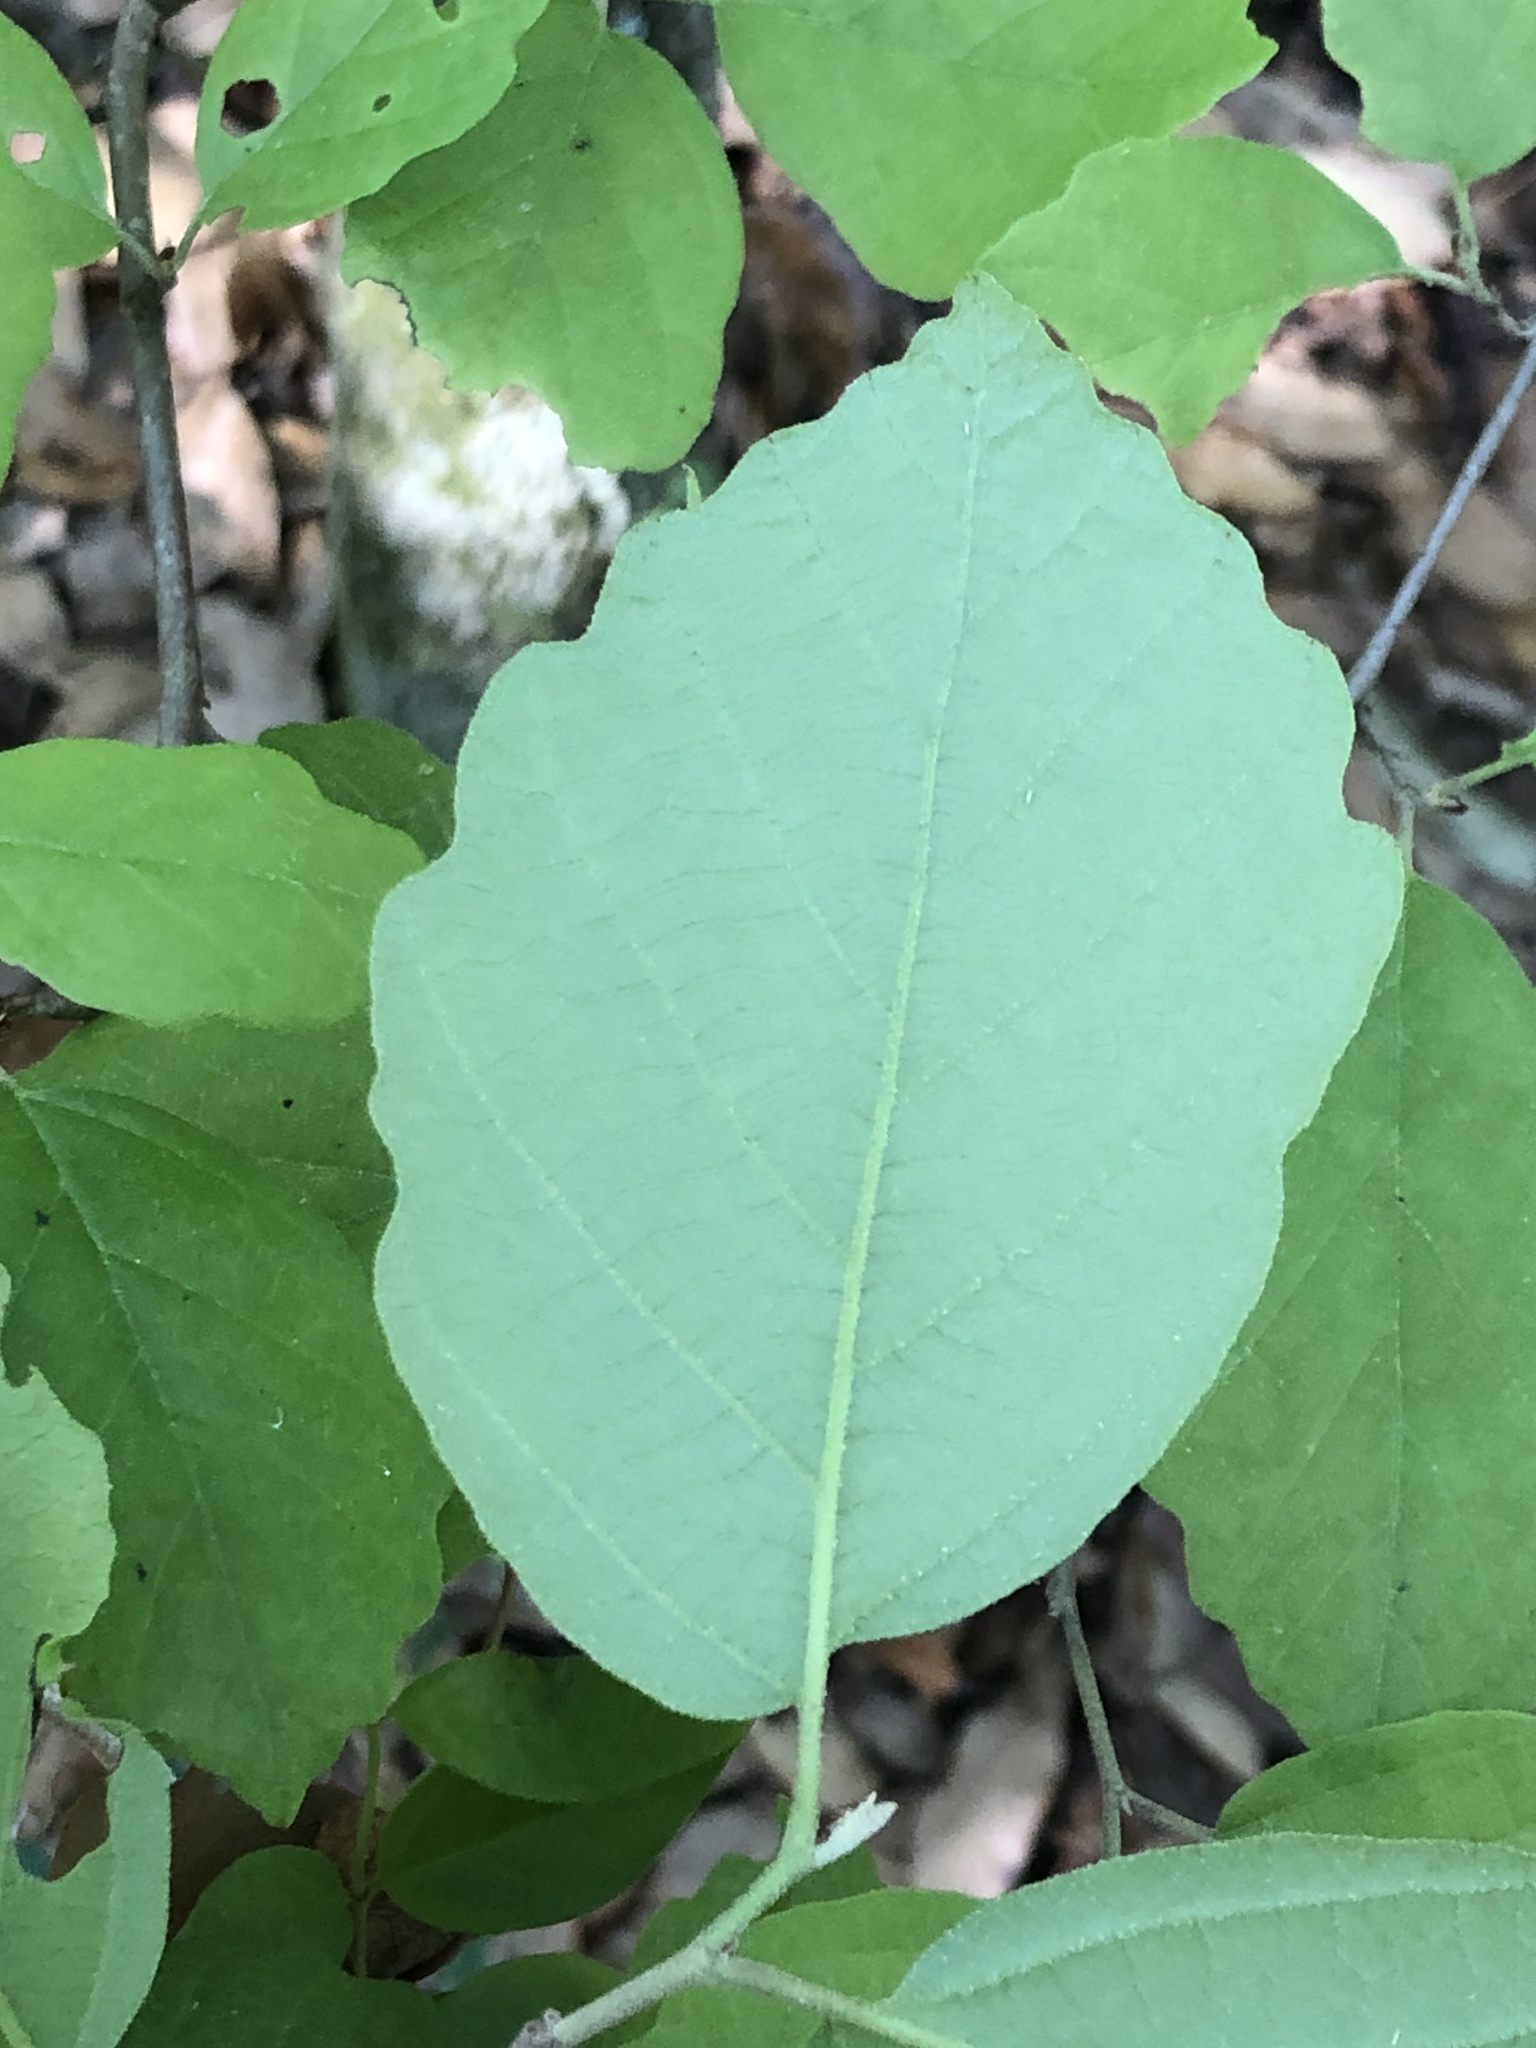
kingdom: Plantae
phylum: Tracheophyta
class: Magnoliopsida
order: Saxifragales
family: Hamamelidaceae
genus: Hamamelis
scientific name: Hamamelis virginiana
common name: Witch-hazel
